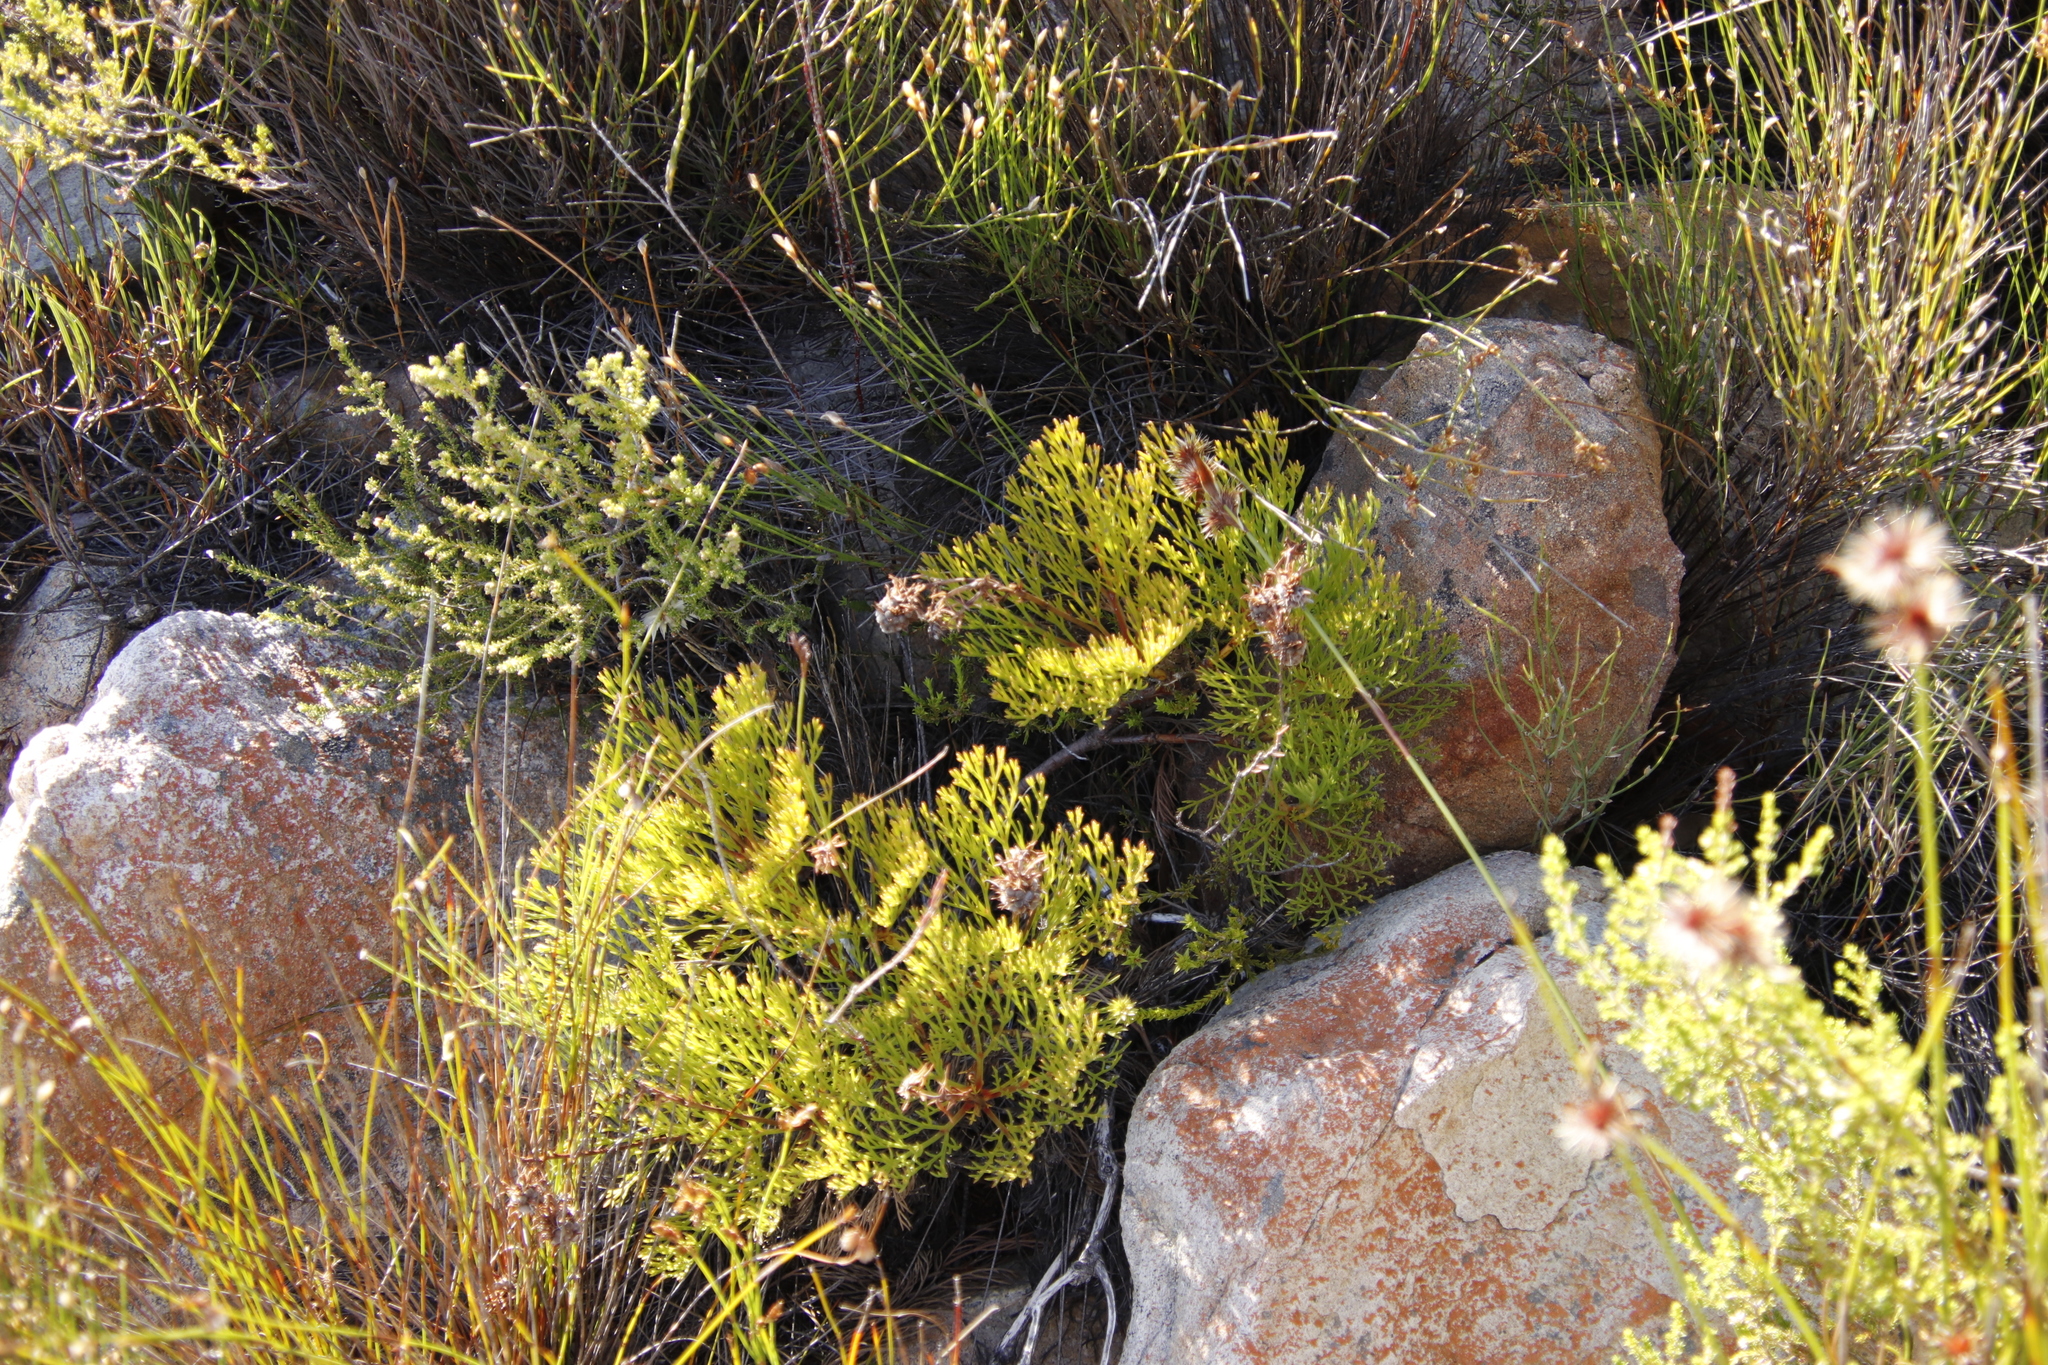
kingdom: Plantae
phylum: Tracheophyta
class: Magnoliopsida
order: Proteales
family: Proteaceae
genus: Serruria
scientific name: Serruria elongata
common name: Long-stalk spiderhead
